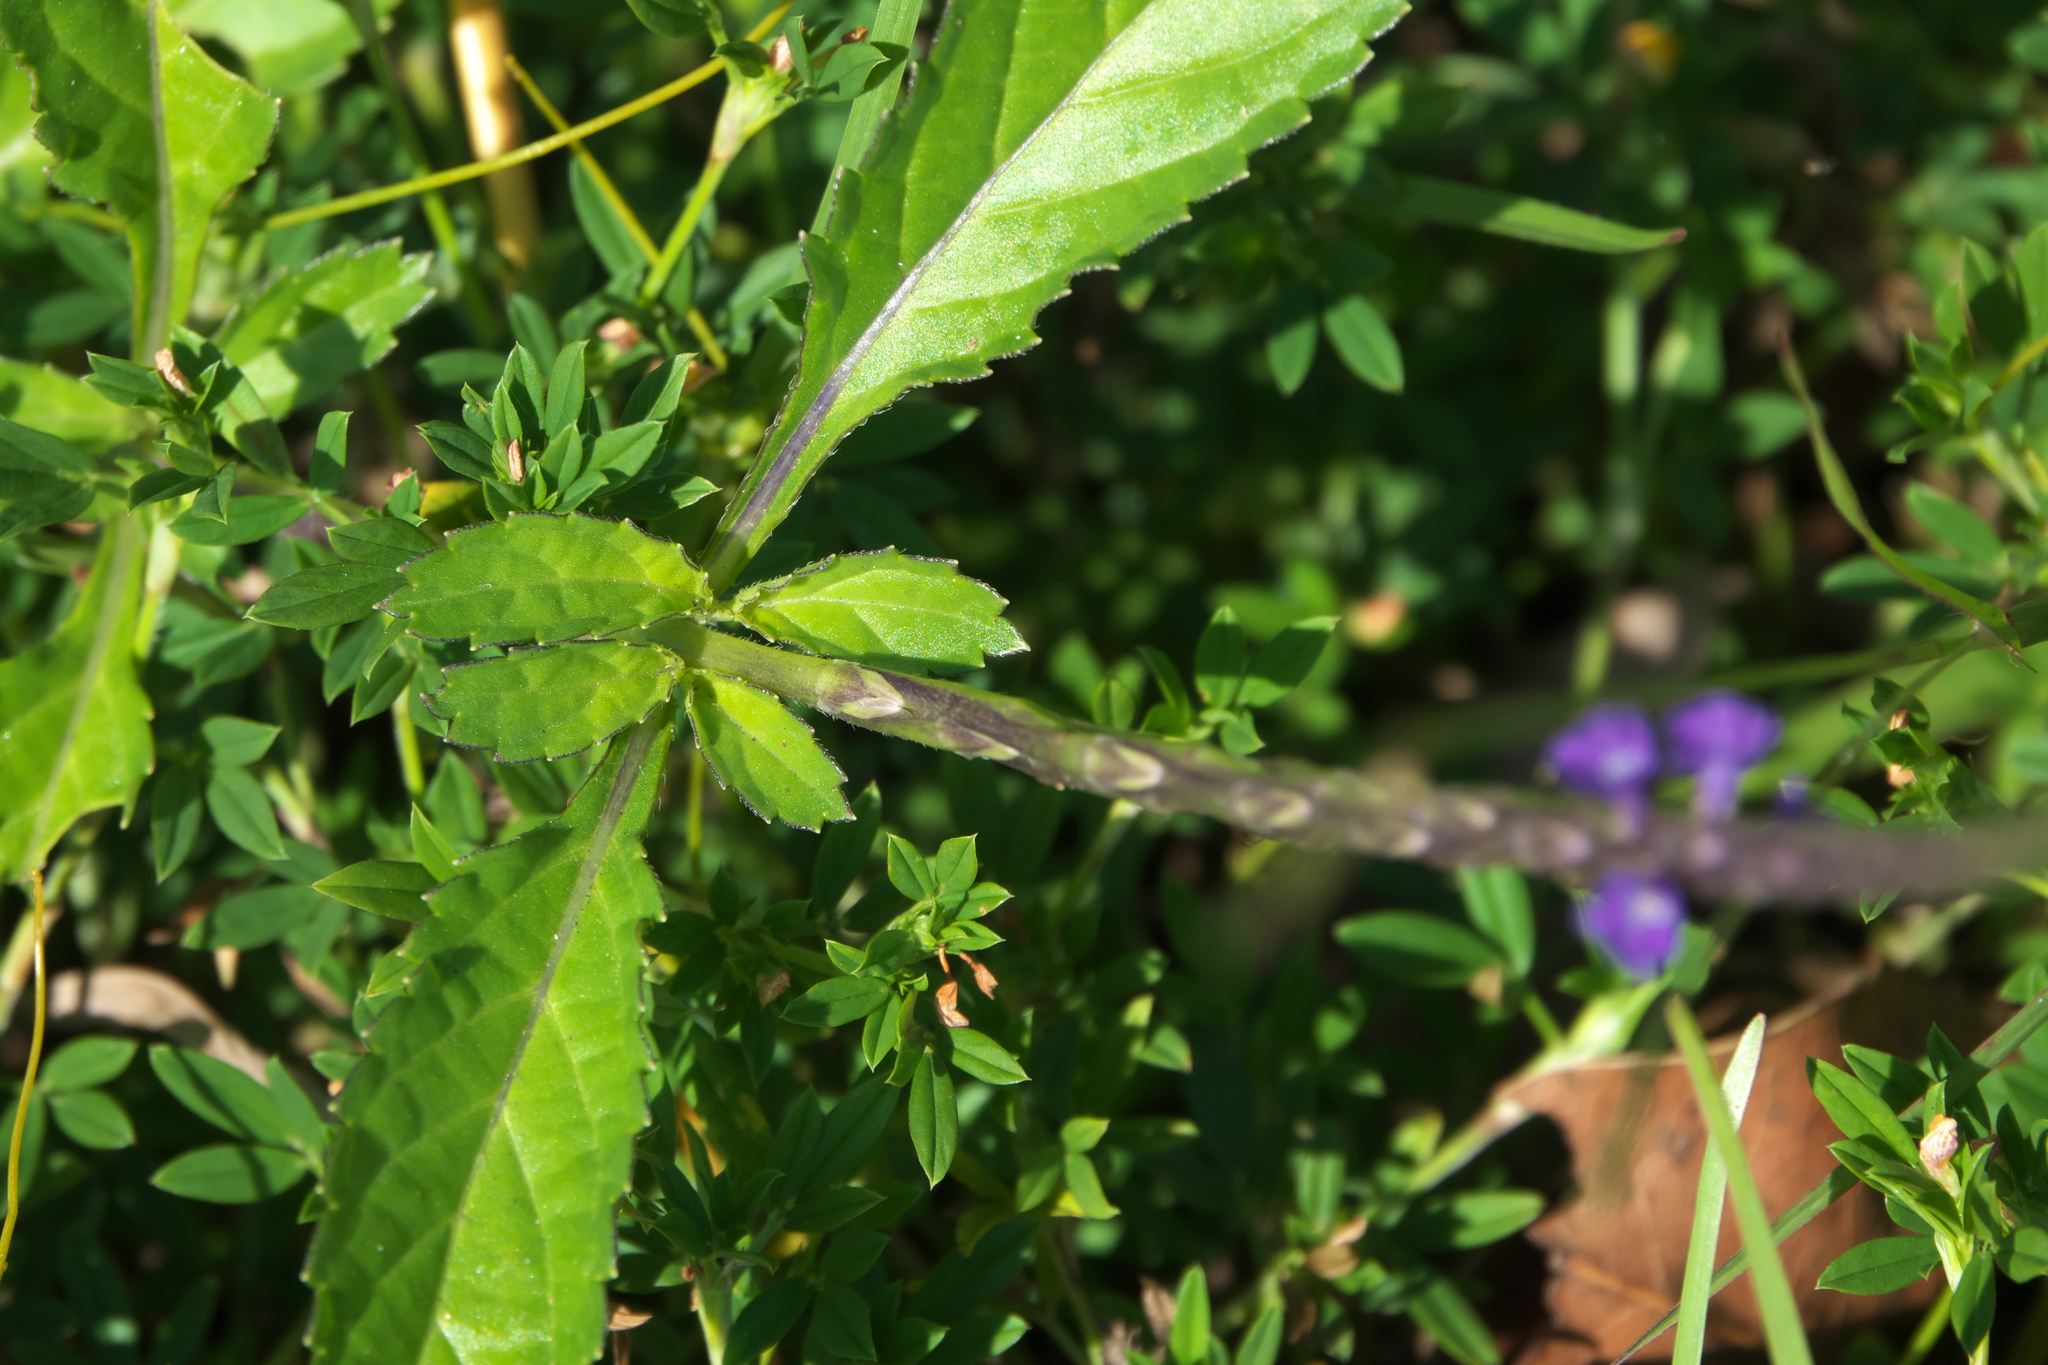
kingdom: Plantae
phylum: Tracheophyta
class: Magnoliopsida
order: Lamiales
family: Verbenaceae
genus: Stachytarpheta
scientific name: Stachytarpheta jamaicensis
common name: Light-blue snakeweed
